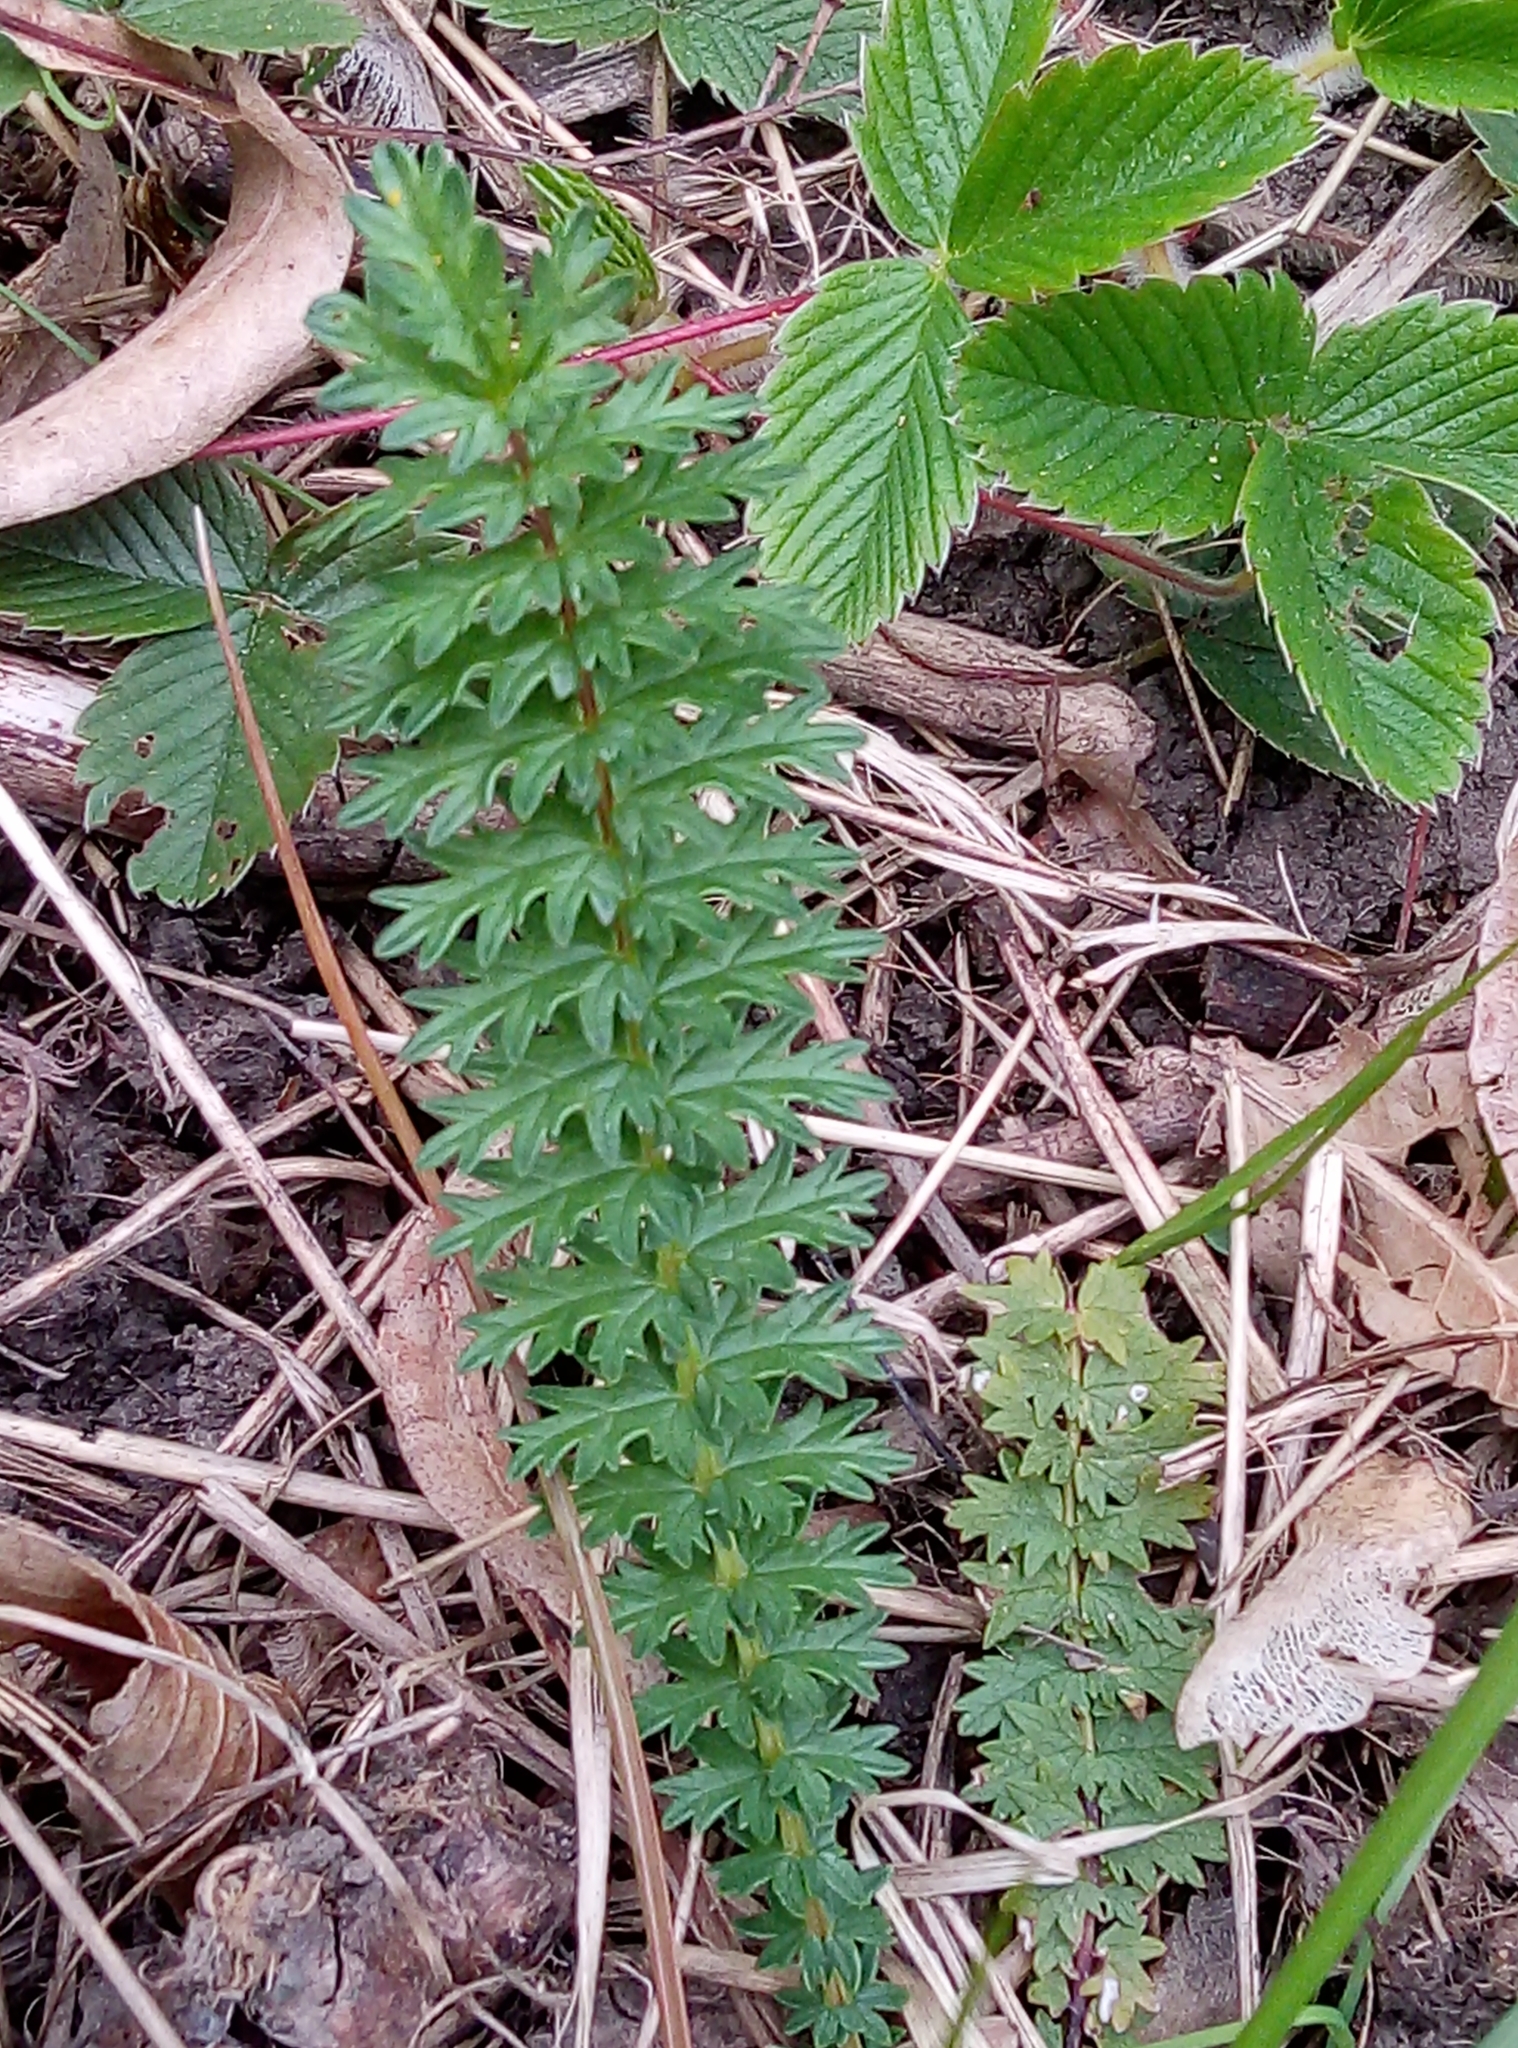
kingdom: Plantae
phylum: Tracheophyta
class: Magnoliopsida
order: Rosales
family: Rosaceae
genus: Filipendula
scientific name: Filipendula vulgaris
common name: Dropwort
